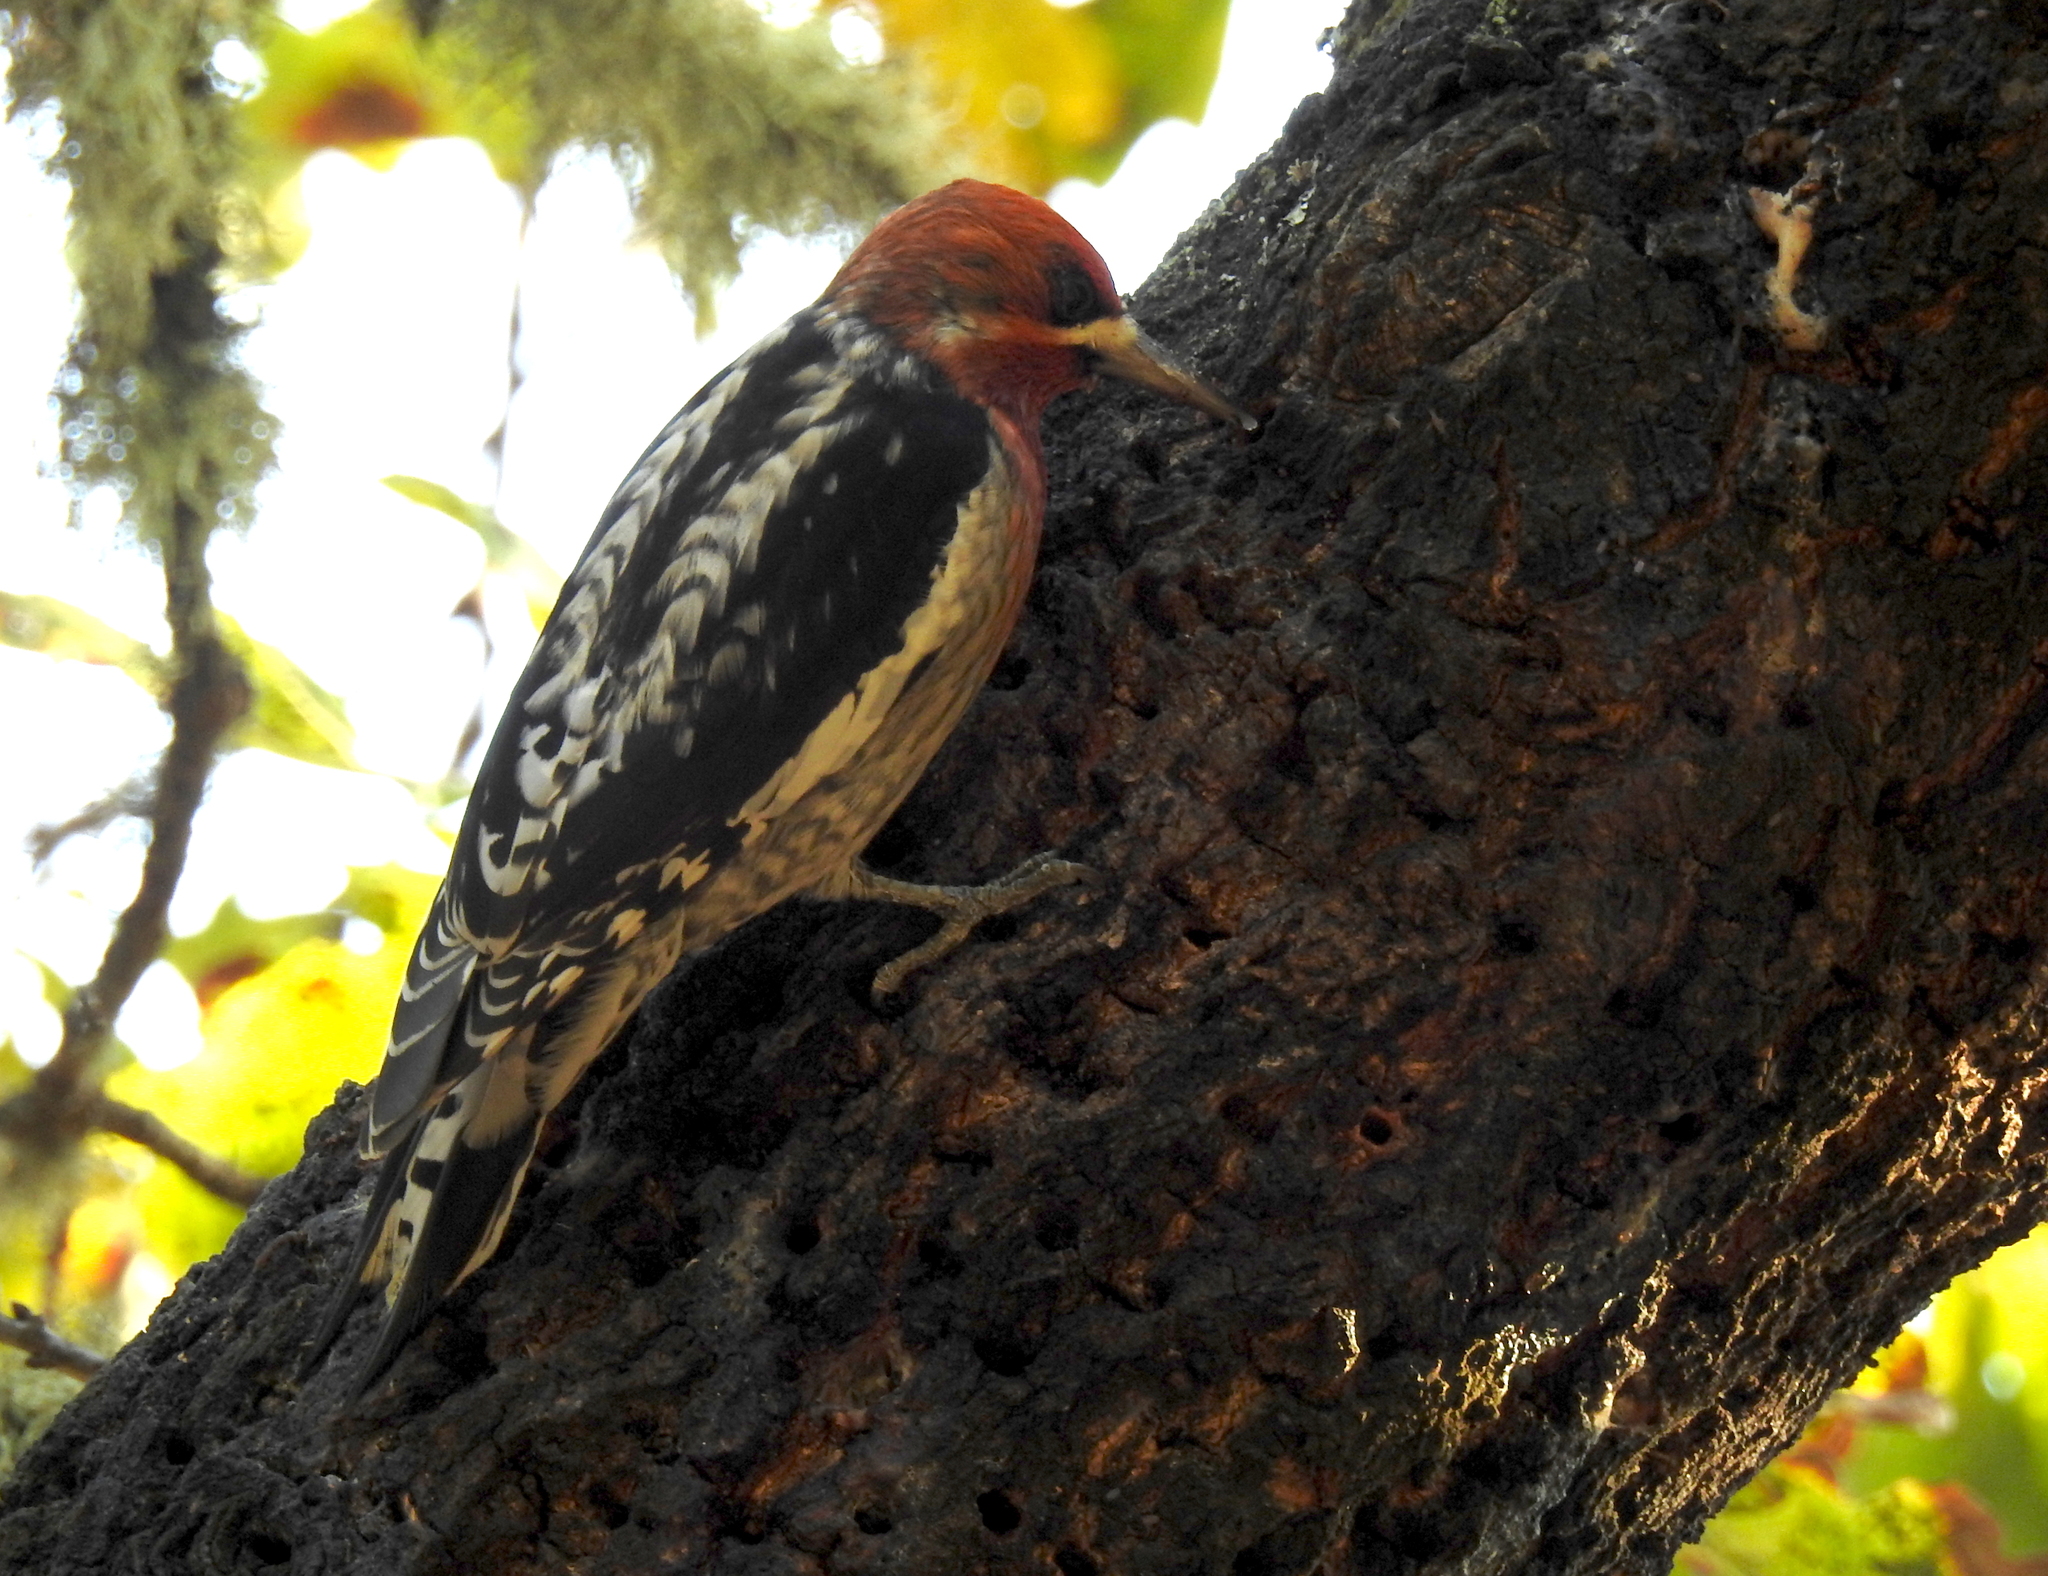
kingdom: Animalia
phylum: Chordata
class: Aves
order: Piciformes
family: Picidae
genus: Sphyrapicus
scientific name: Sphyrapicus ruber
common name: Red-breasted sapsucker
